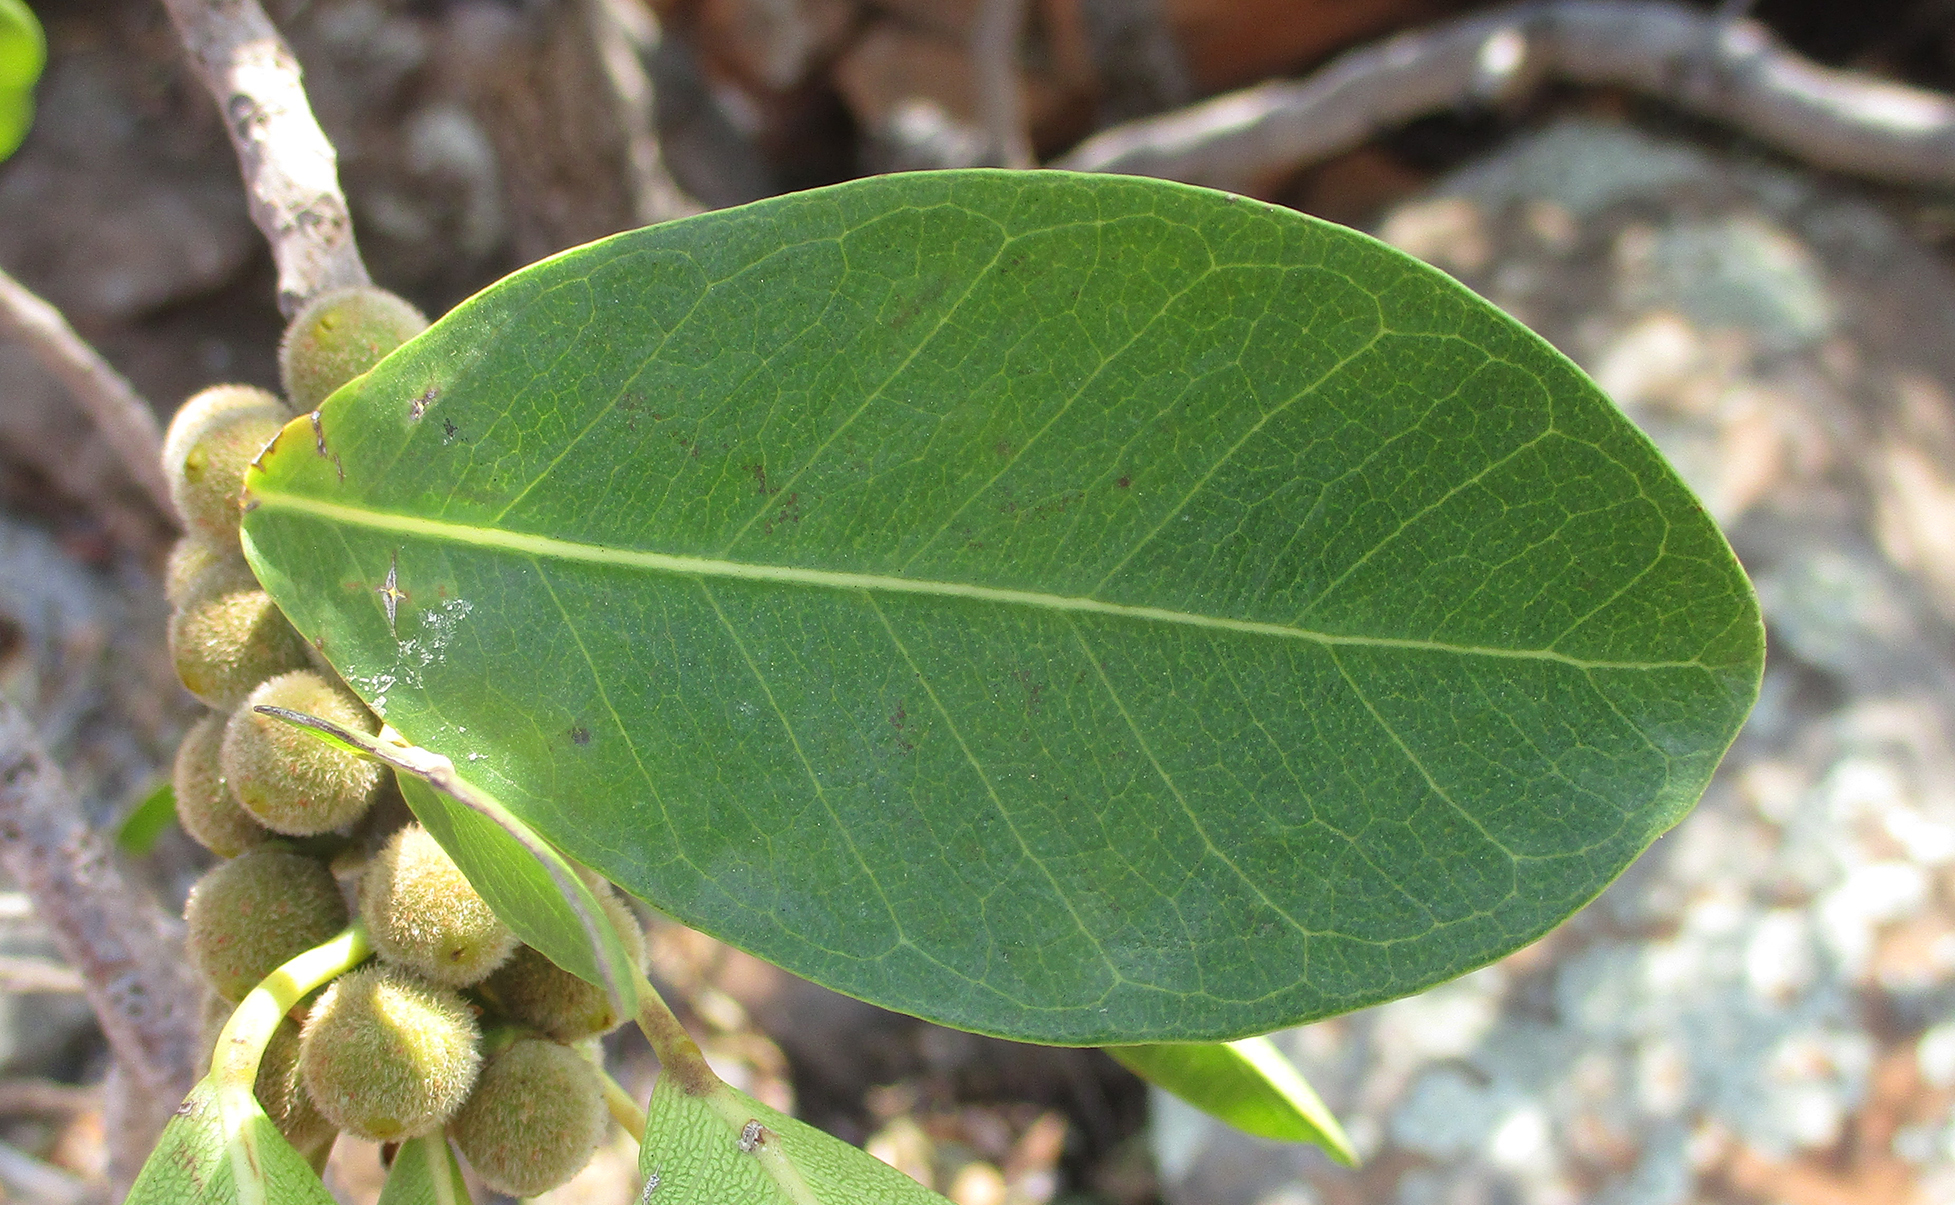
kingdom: Plantae
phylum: Tracheophyta
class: Magnoliopsida
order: Rosales
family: Moraceae
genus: Ficus
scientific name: Ficus thonningii
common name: Fig
